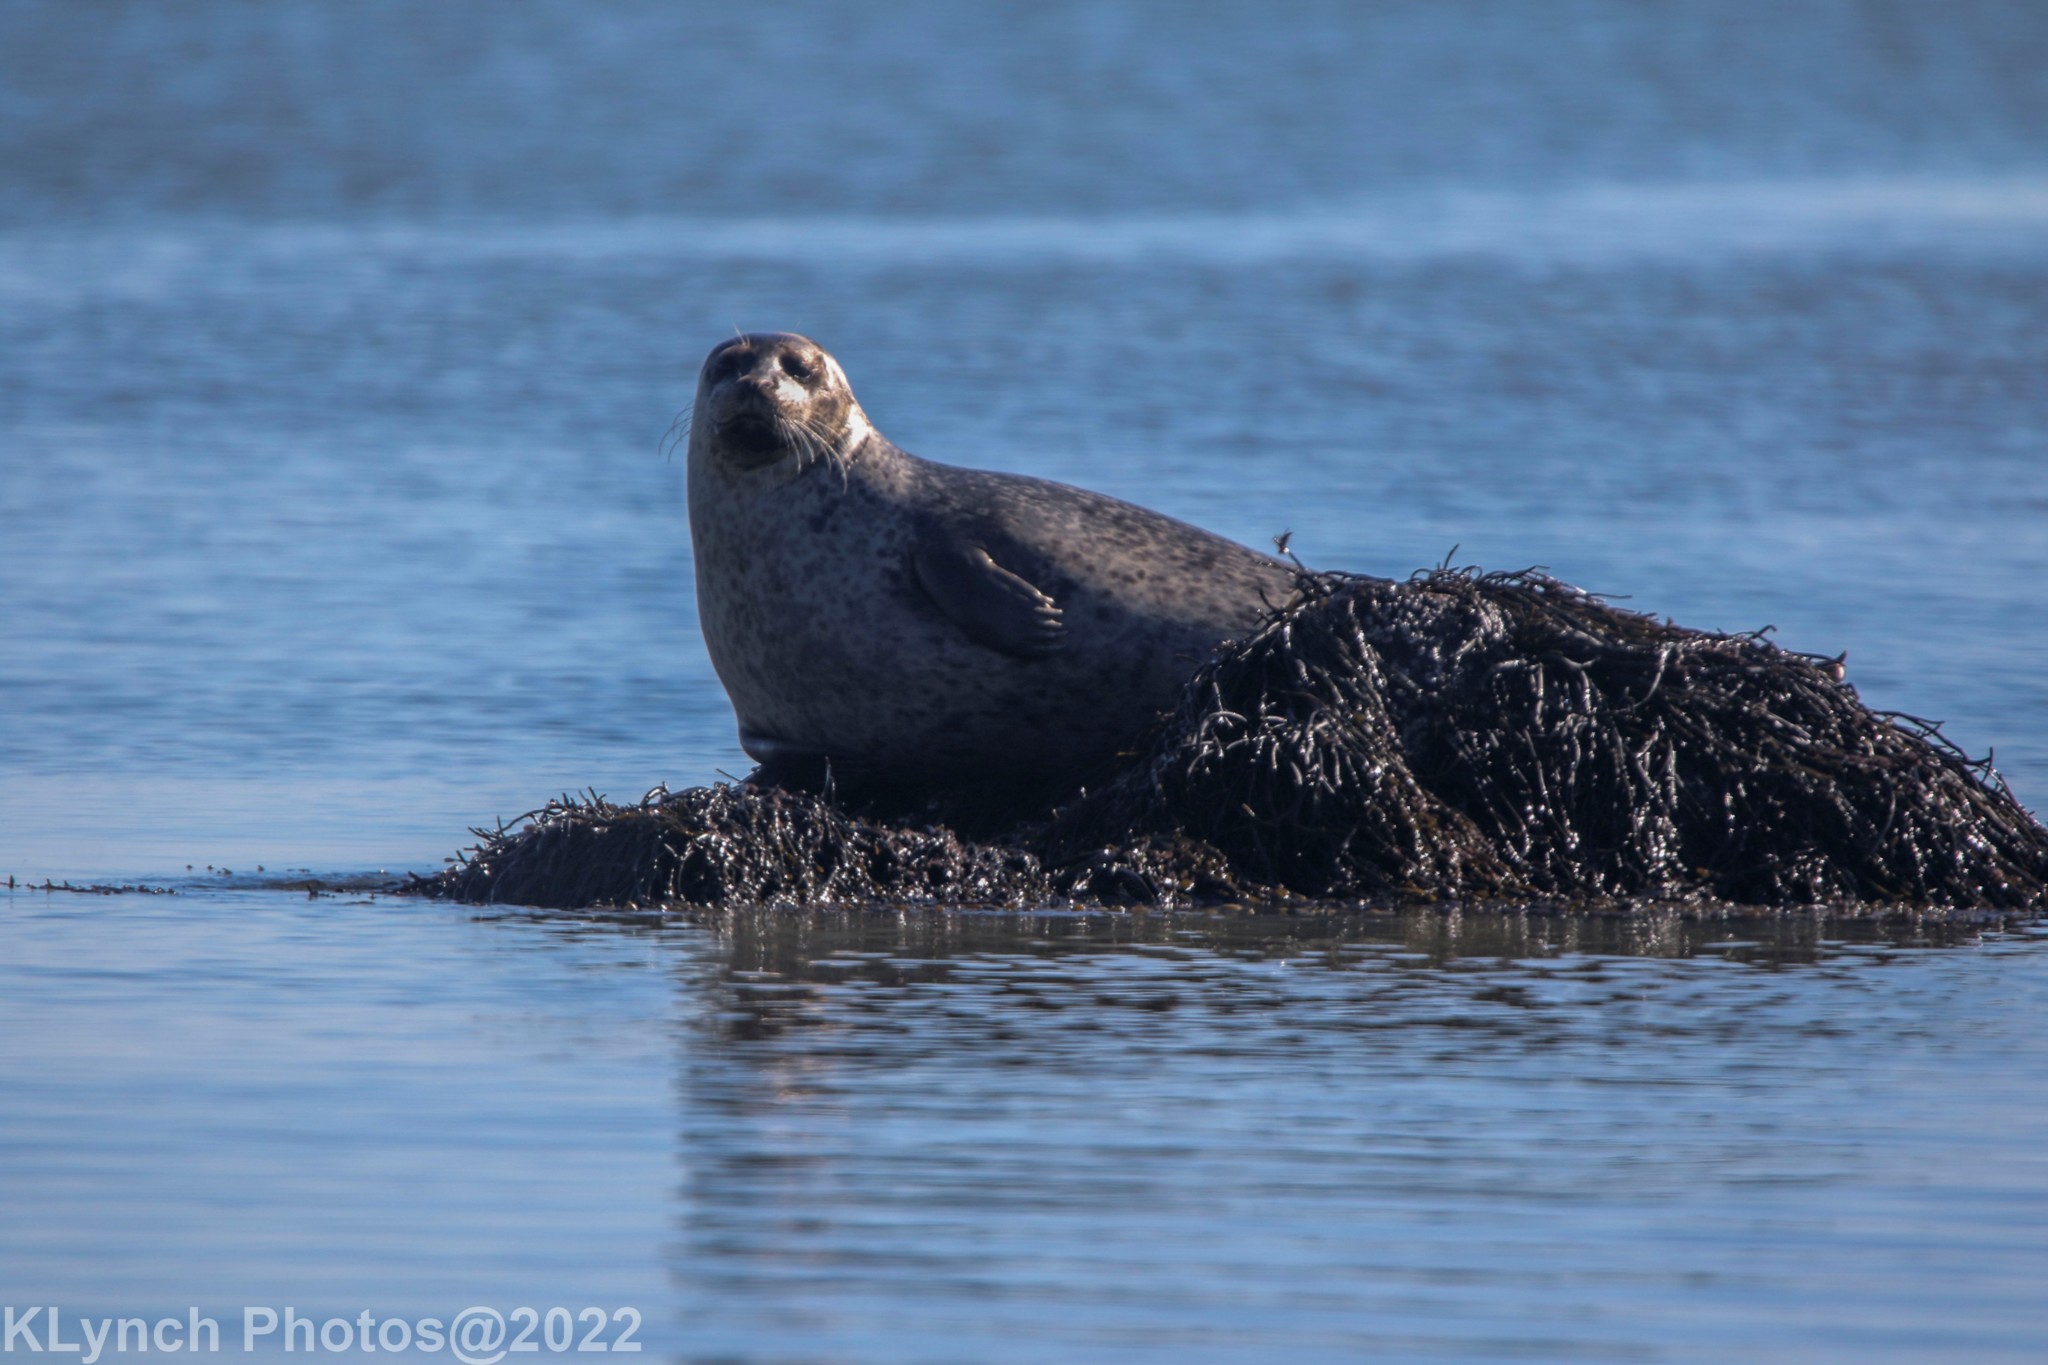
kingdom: Animalia
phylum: Chordata
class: Mammalia
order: Carnivora
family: Phocidae
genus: Phoca
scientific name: Phoca vitulina
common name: Harbor seal
